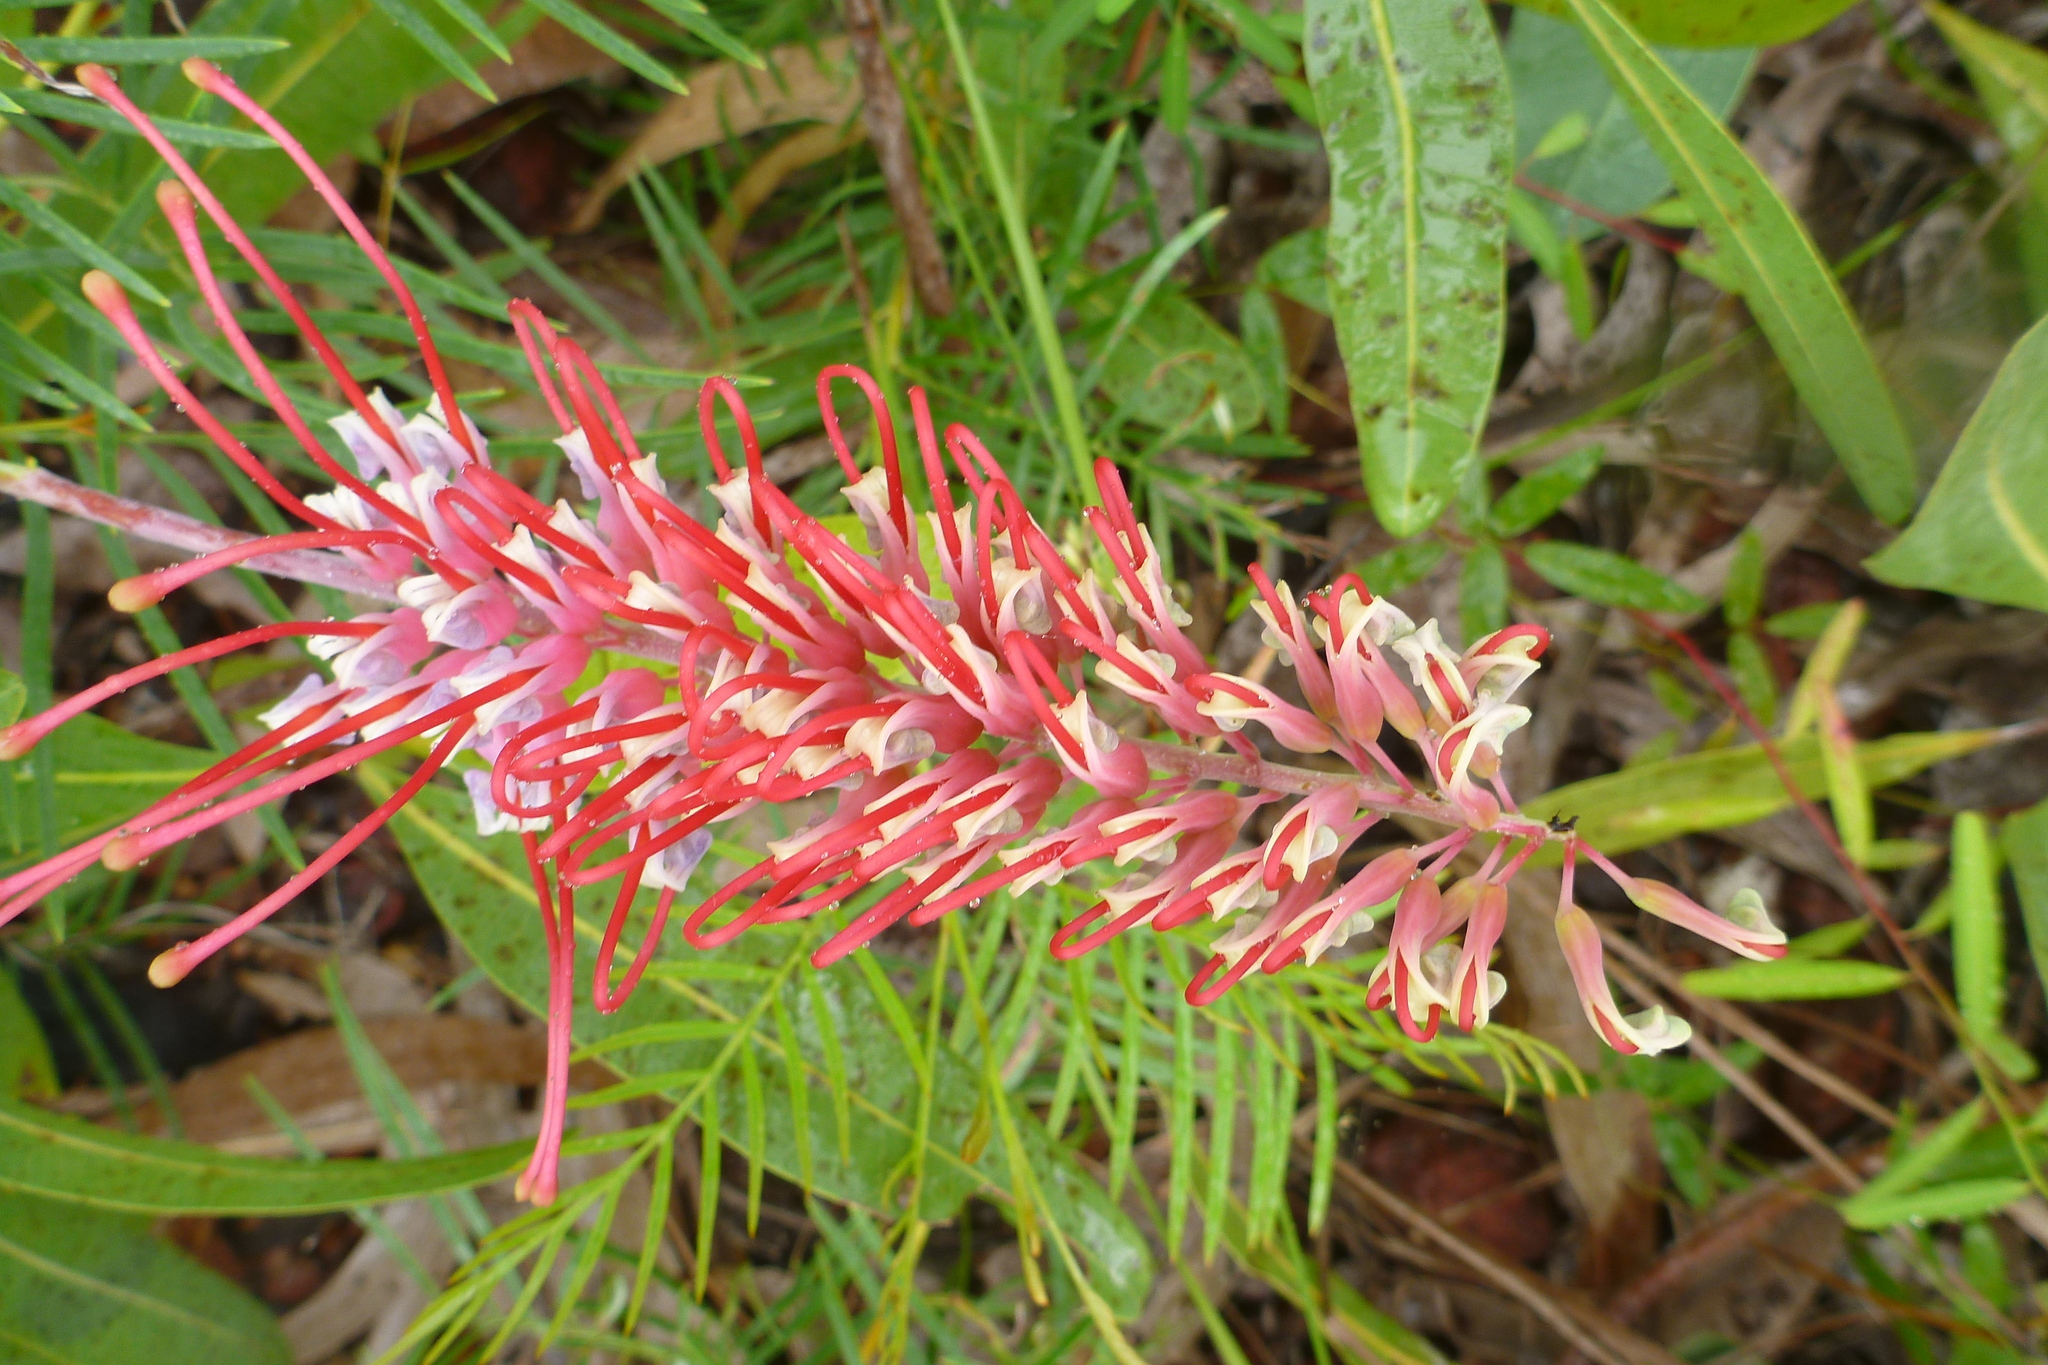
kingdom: Plantae
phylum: Tracheophyta
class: Magnoliopsida
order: Proteales
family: Proteaceae
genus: Grevillea
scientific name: Grevillea dryandri
